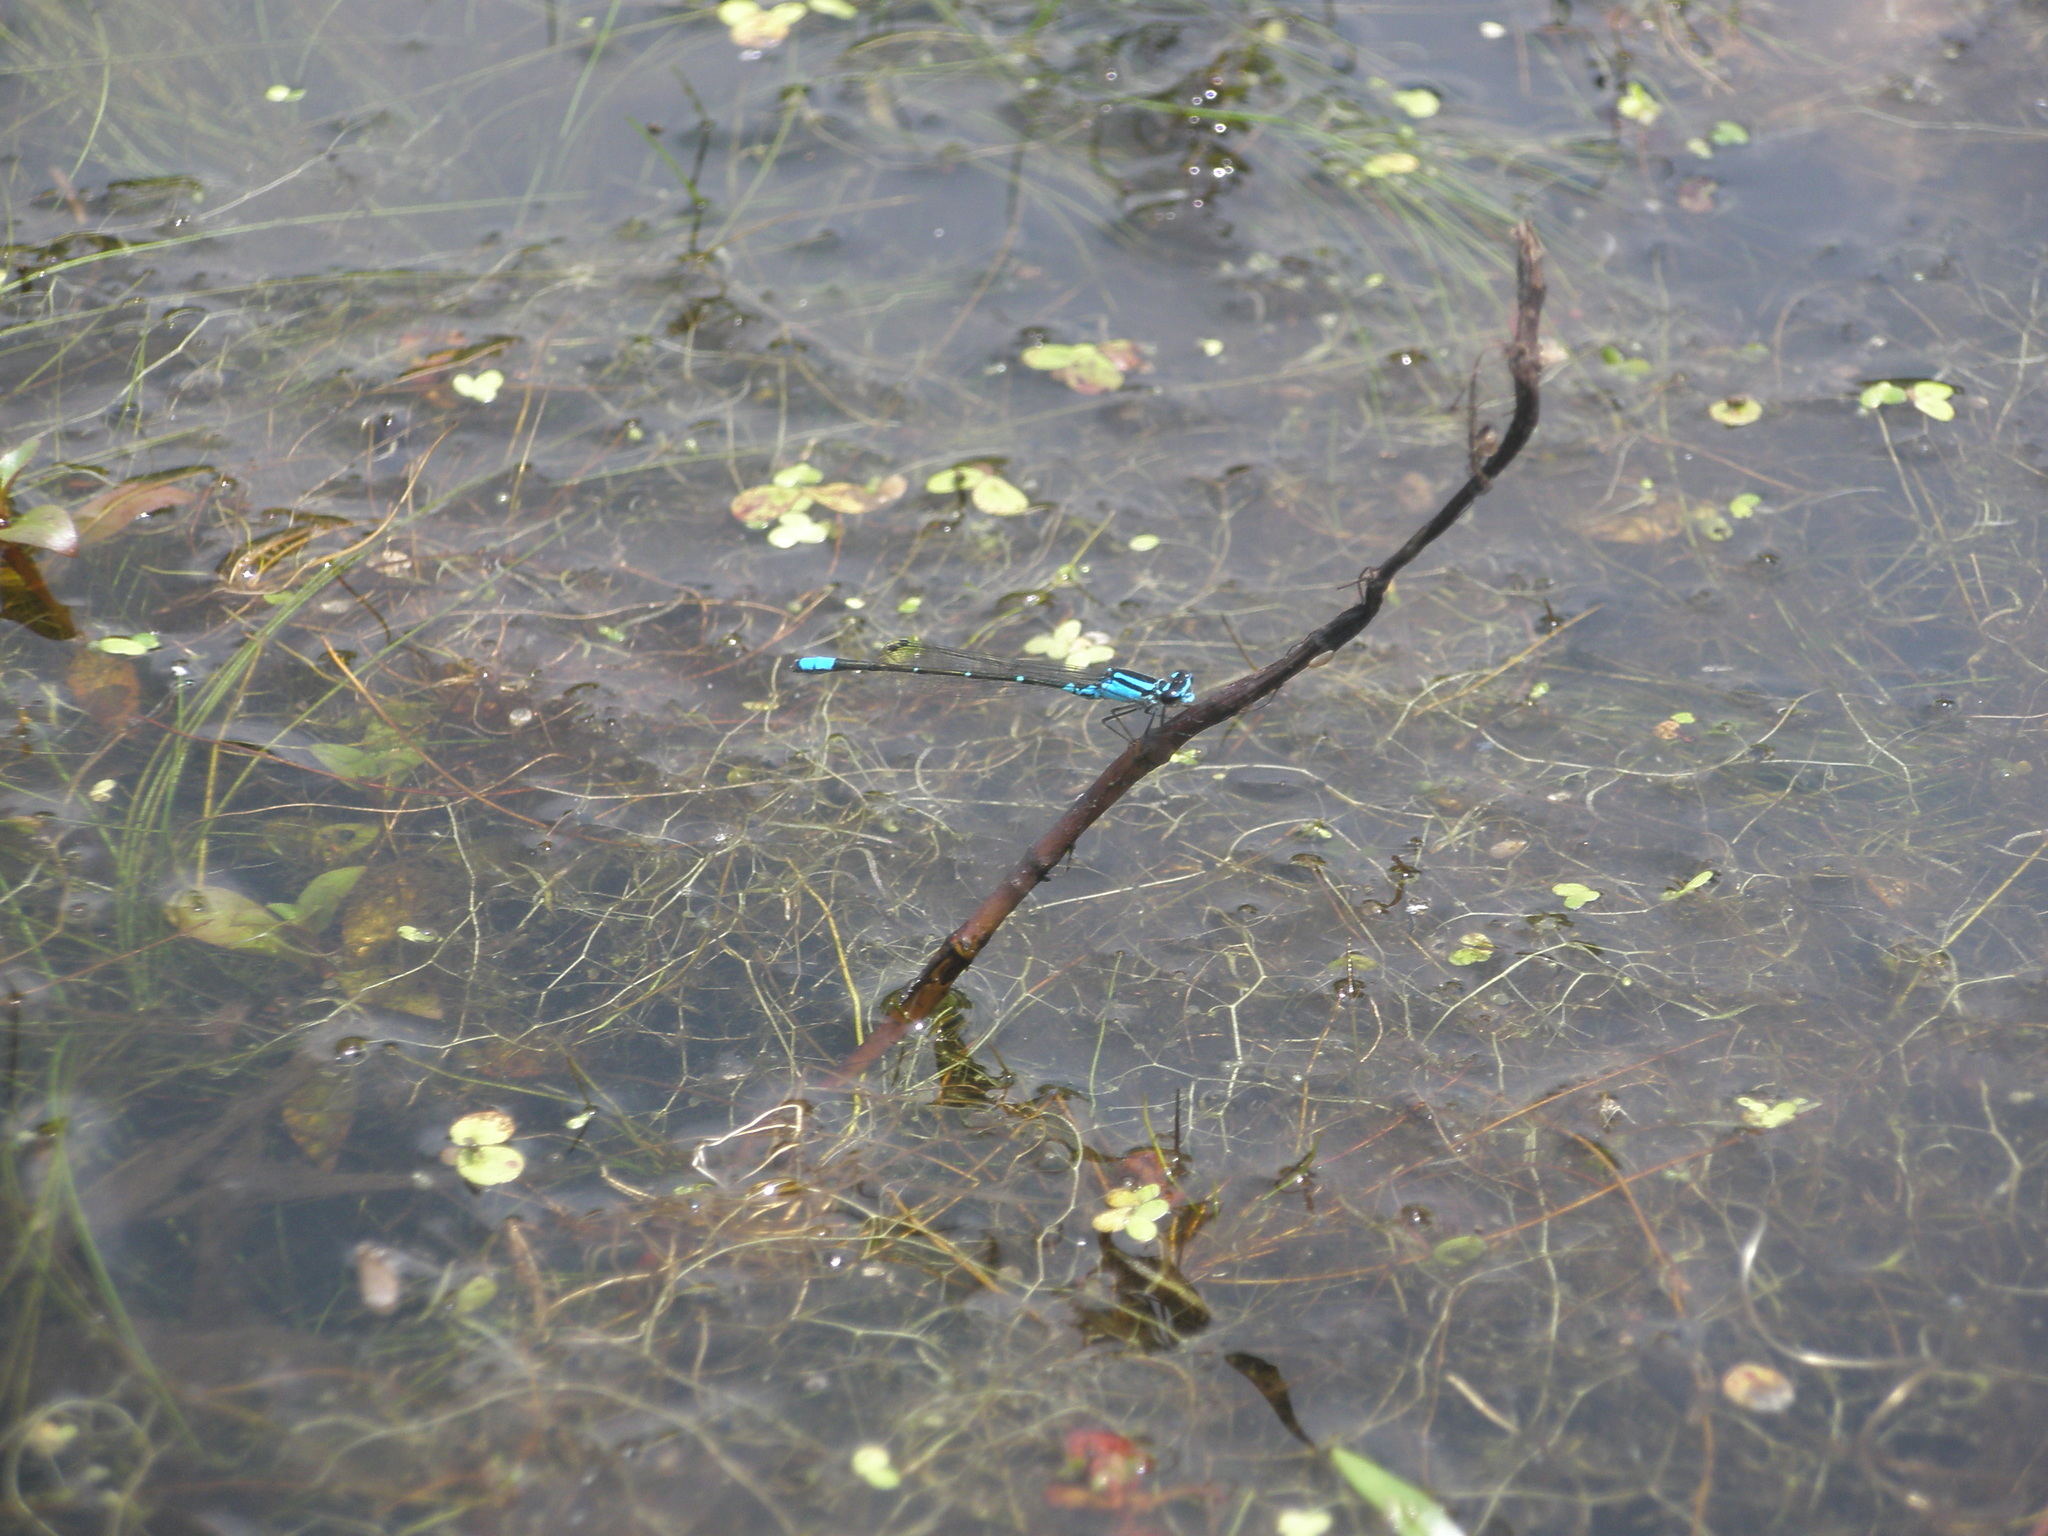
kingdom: Animalia
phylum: Arthropoda
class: Insecta
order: Odonata
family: Coenagrionidae
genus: Enallagma
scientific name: Enallagma geminatum
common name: Skimming bluet
